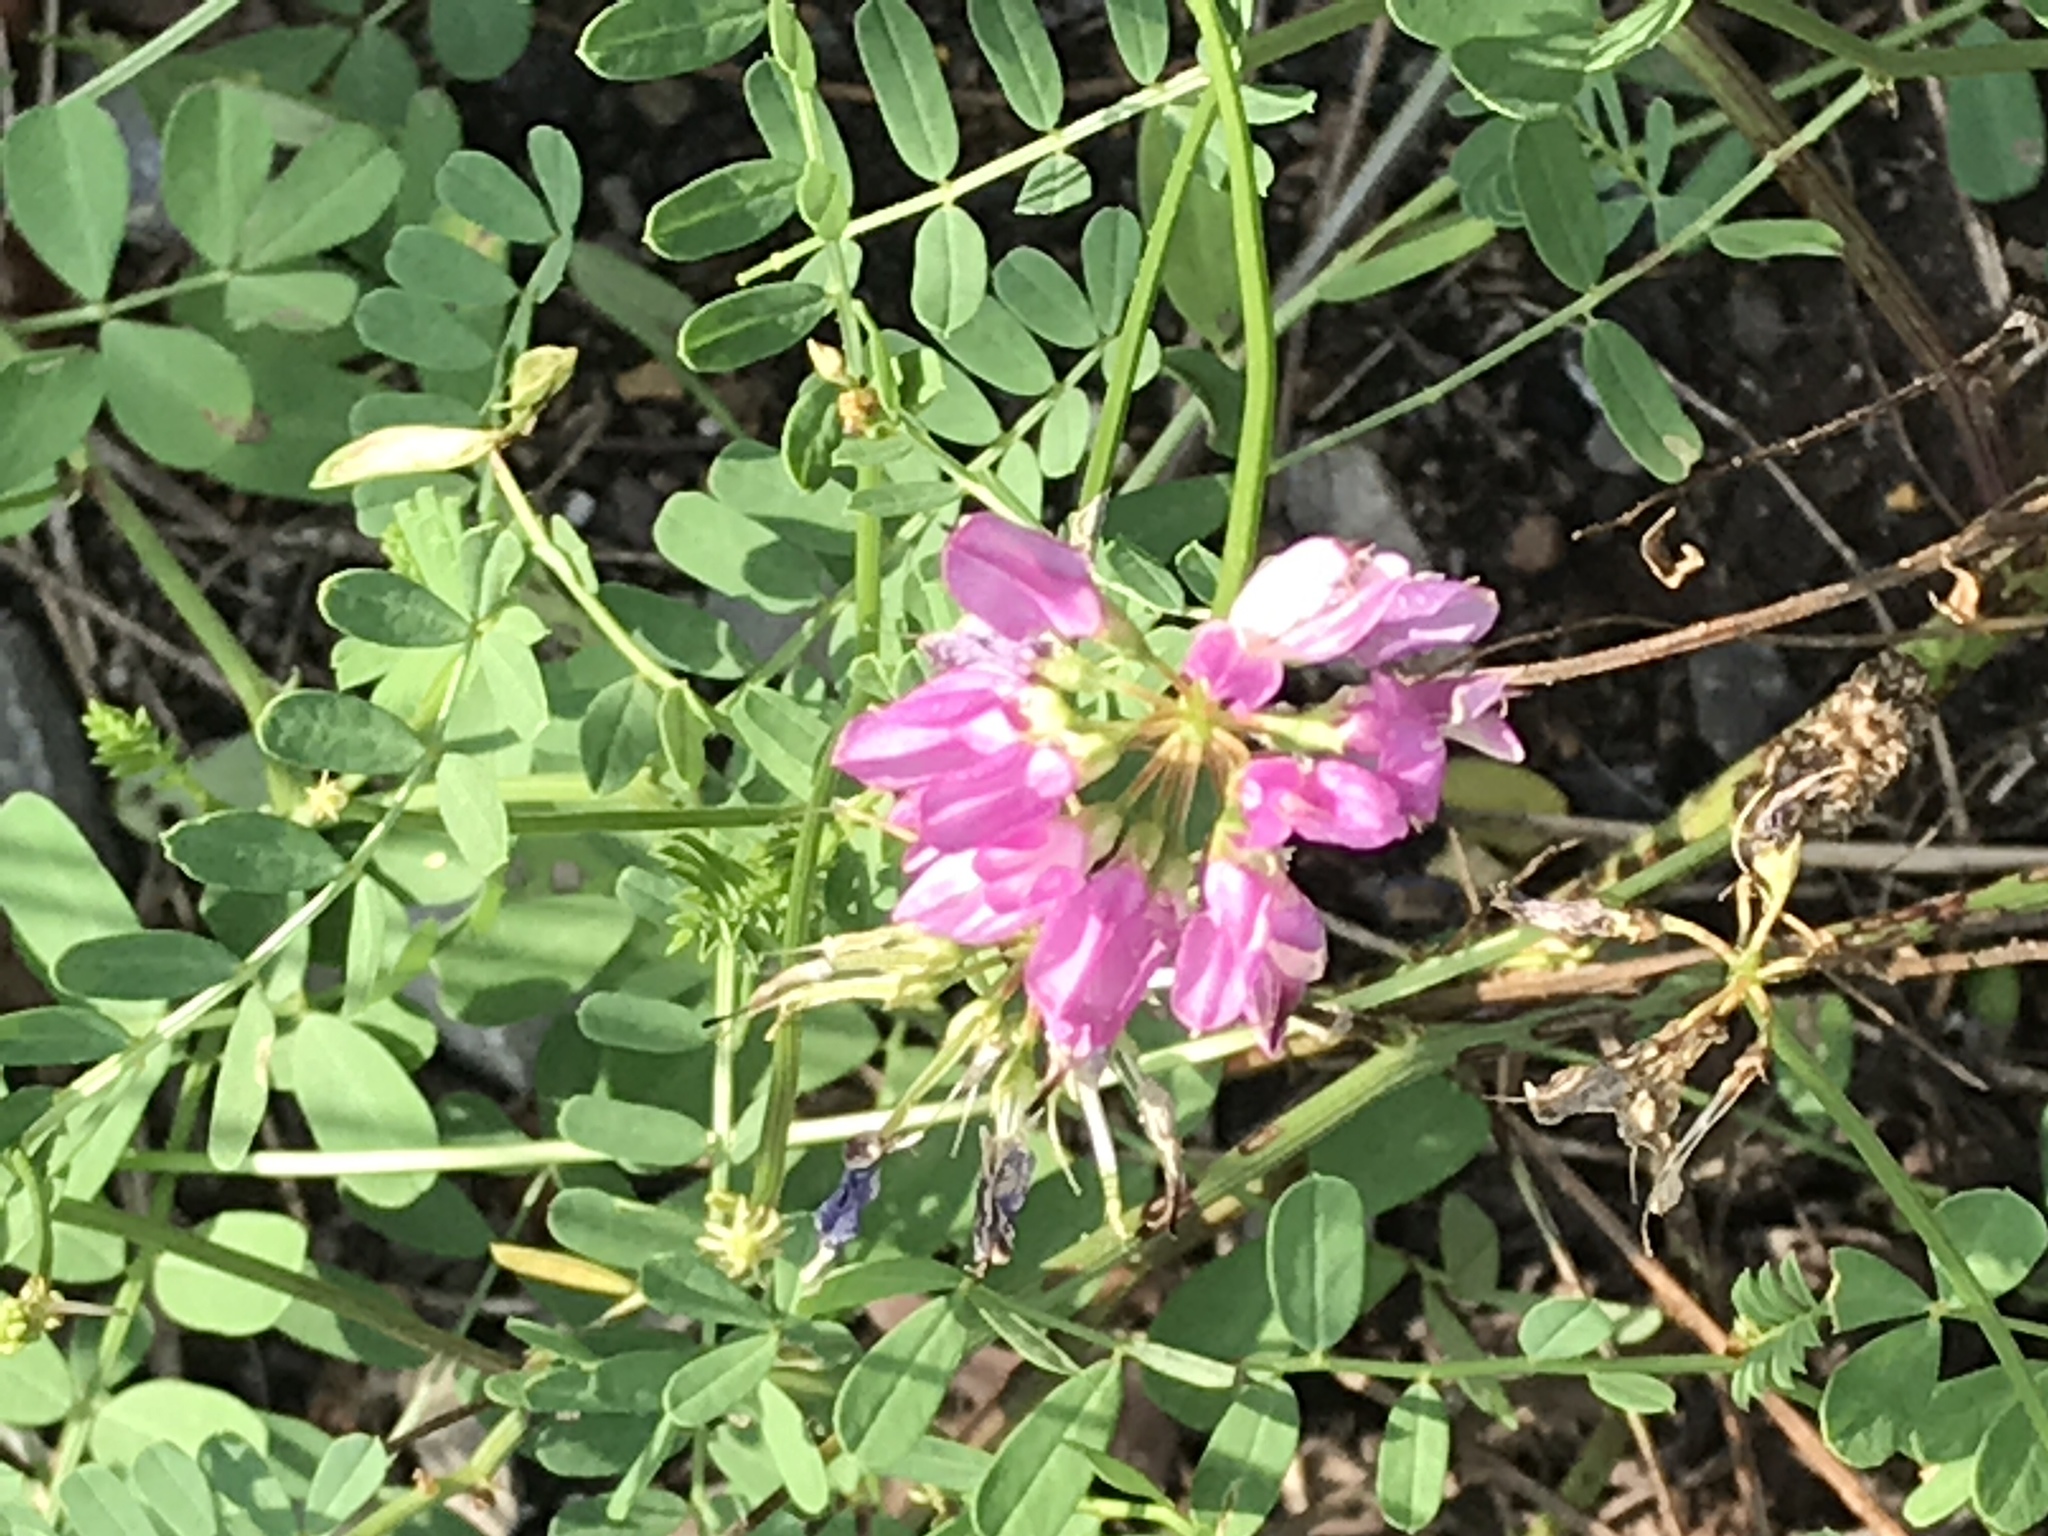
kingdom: Plantae
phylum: Tracheophyta
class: Magnoliopsida
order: Fabales
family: Fabaceae
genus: Coronilla
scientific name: Coronilla varia
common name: Crownvetch
